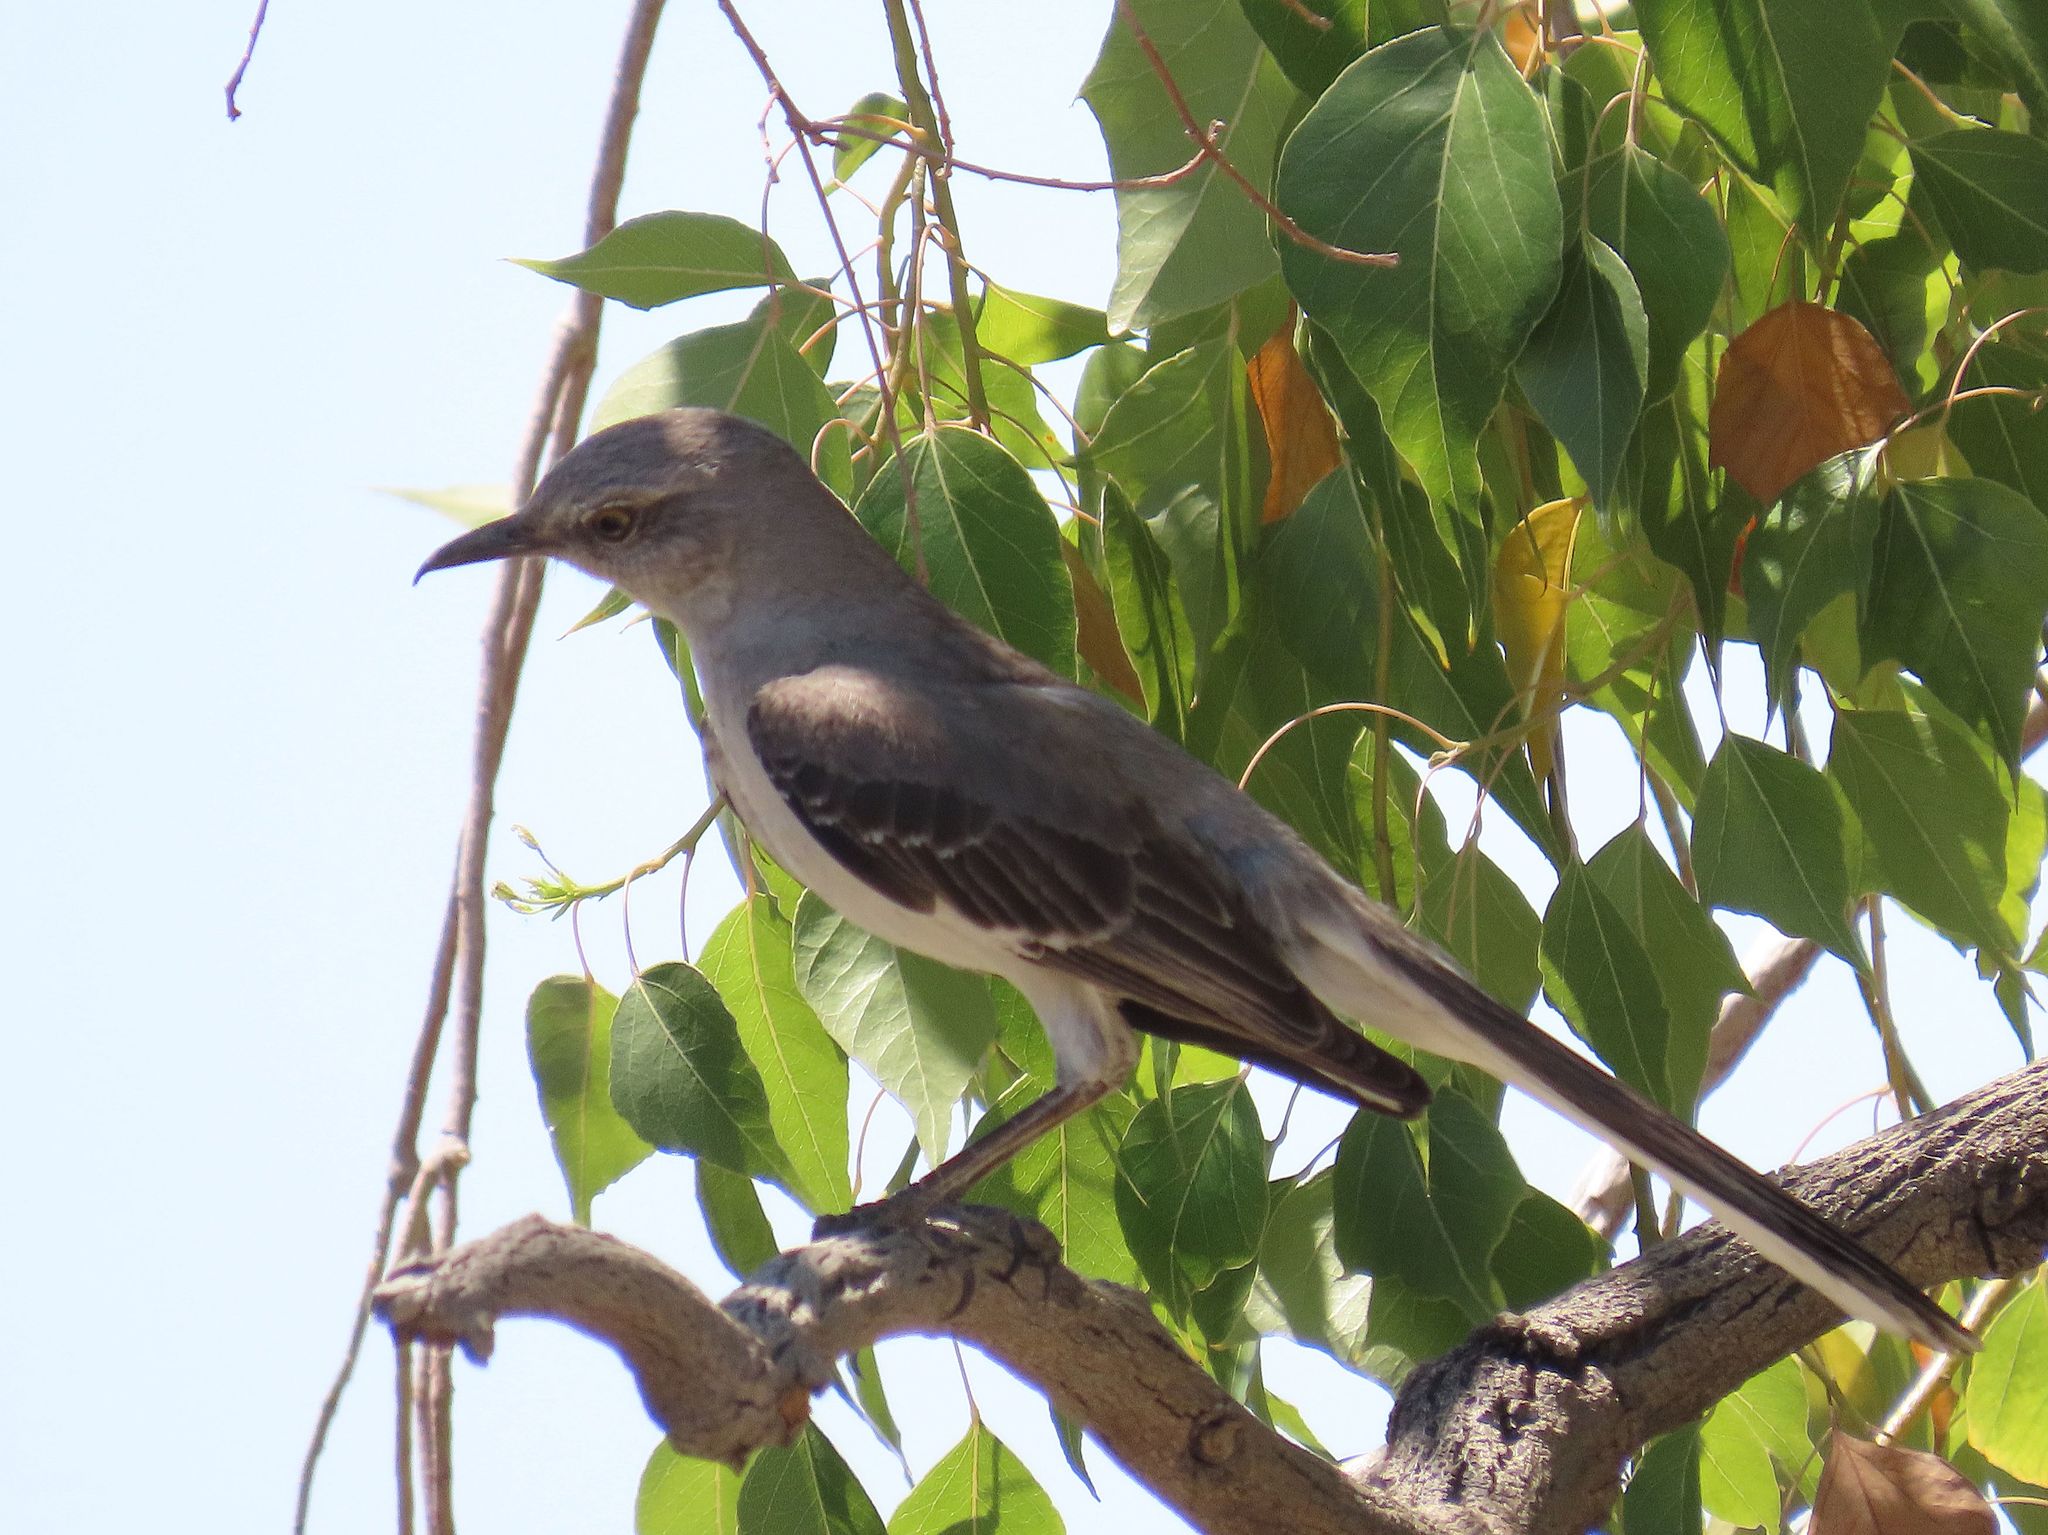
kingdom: Animalia
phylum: Chordata
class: Aves
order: Passeriformes
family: Mimidae
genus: Mimus
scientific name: Mimus polyglottos
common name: Northern mockingbird
